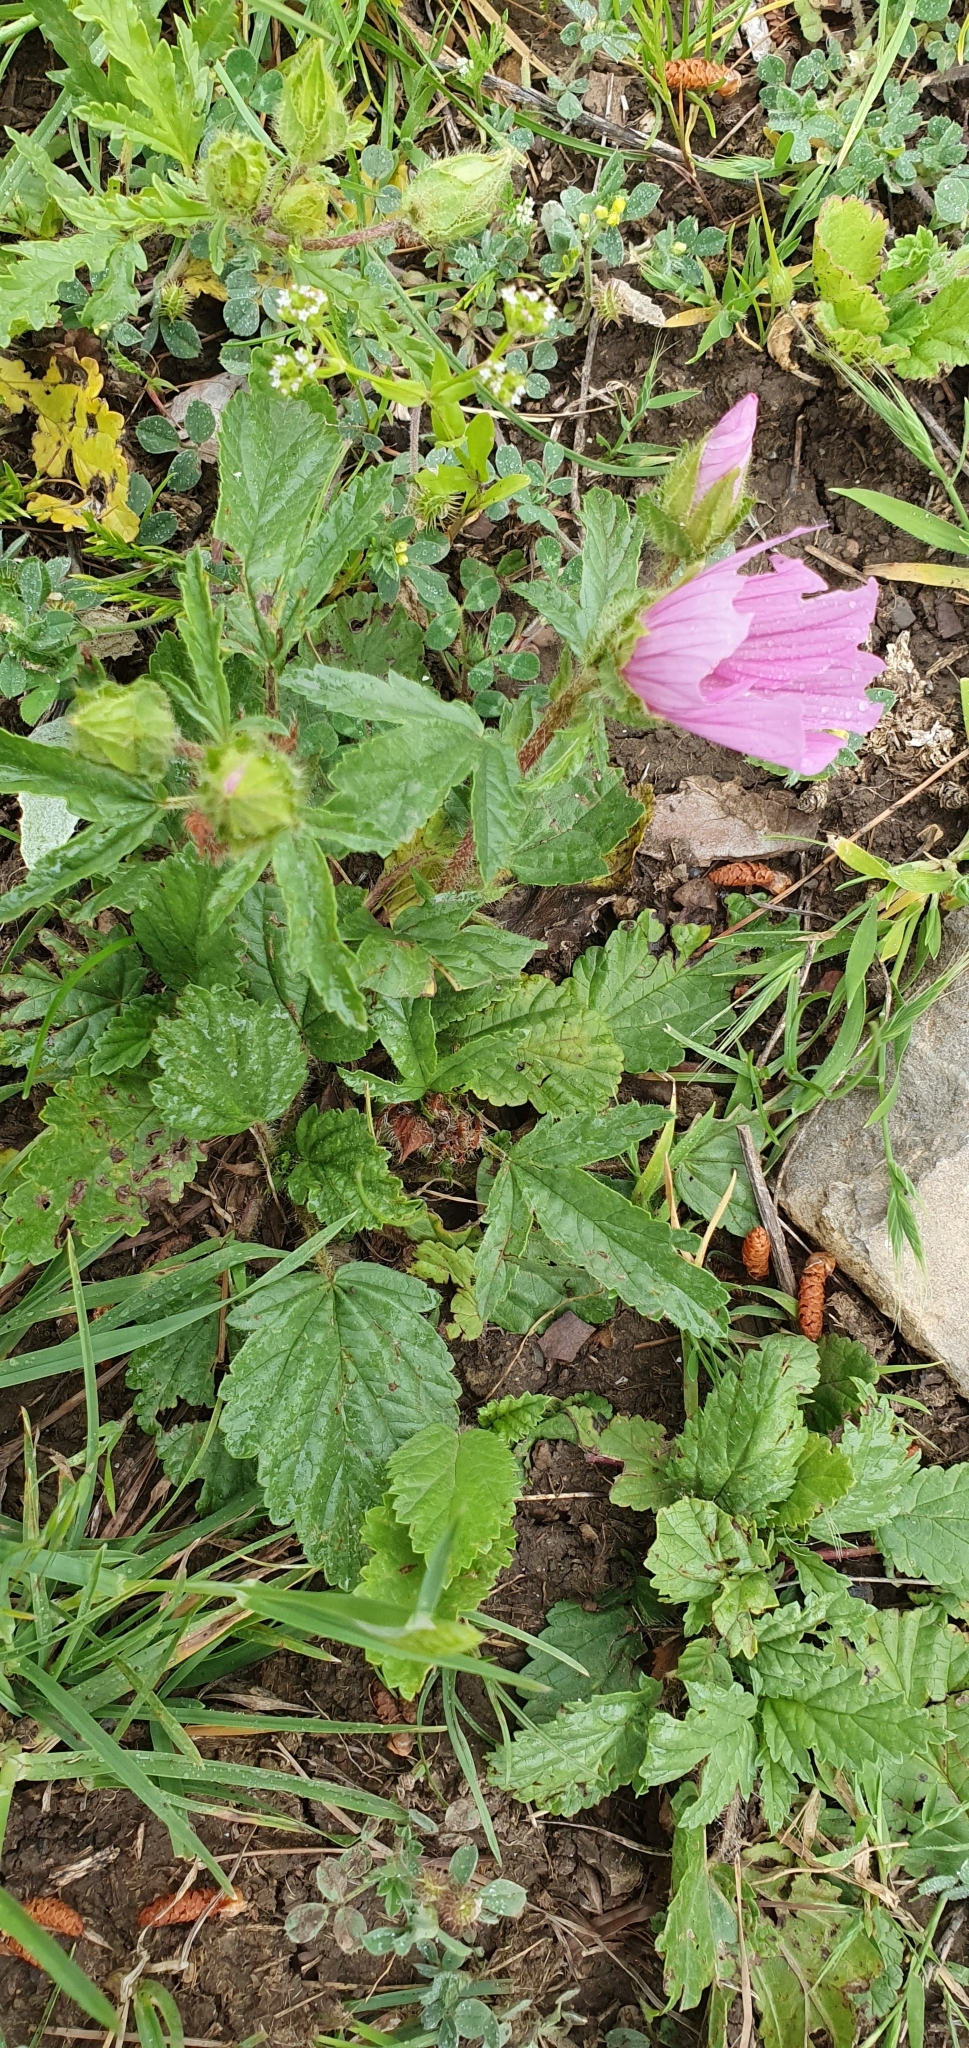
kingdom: Plantae
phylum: Tracheophyta
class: Magnoliopsida
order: Malvales
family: Malvaceae
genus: Malope
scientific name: Malope malacoides
